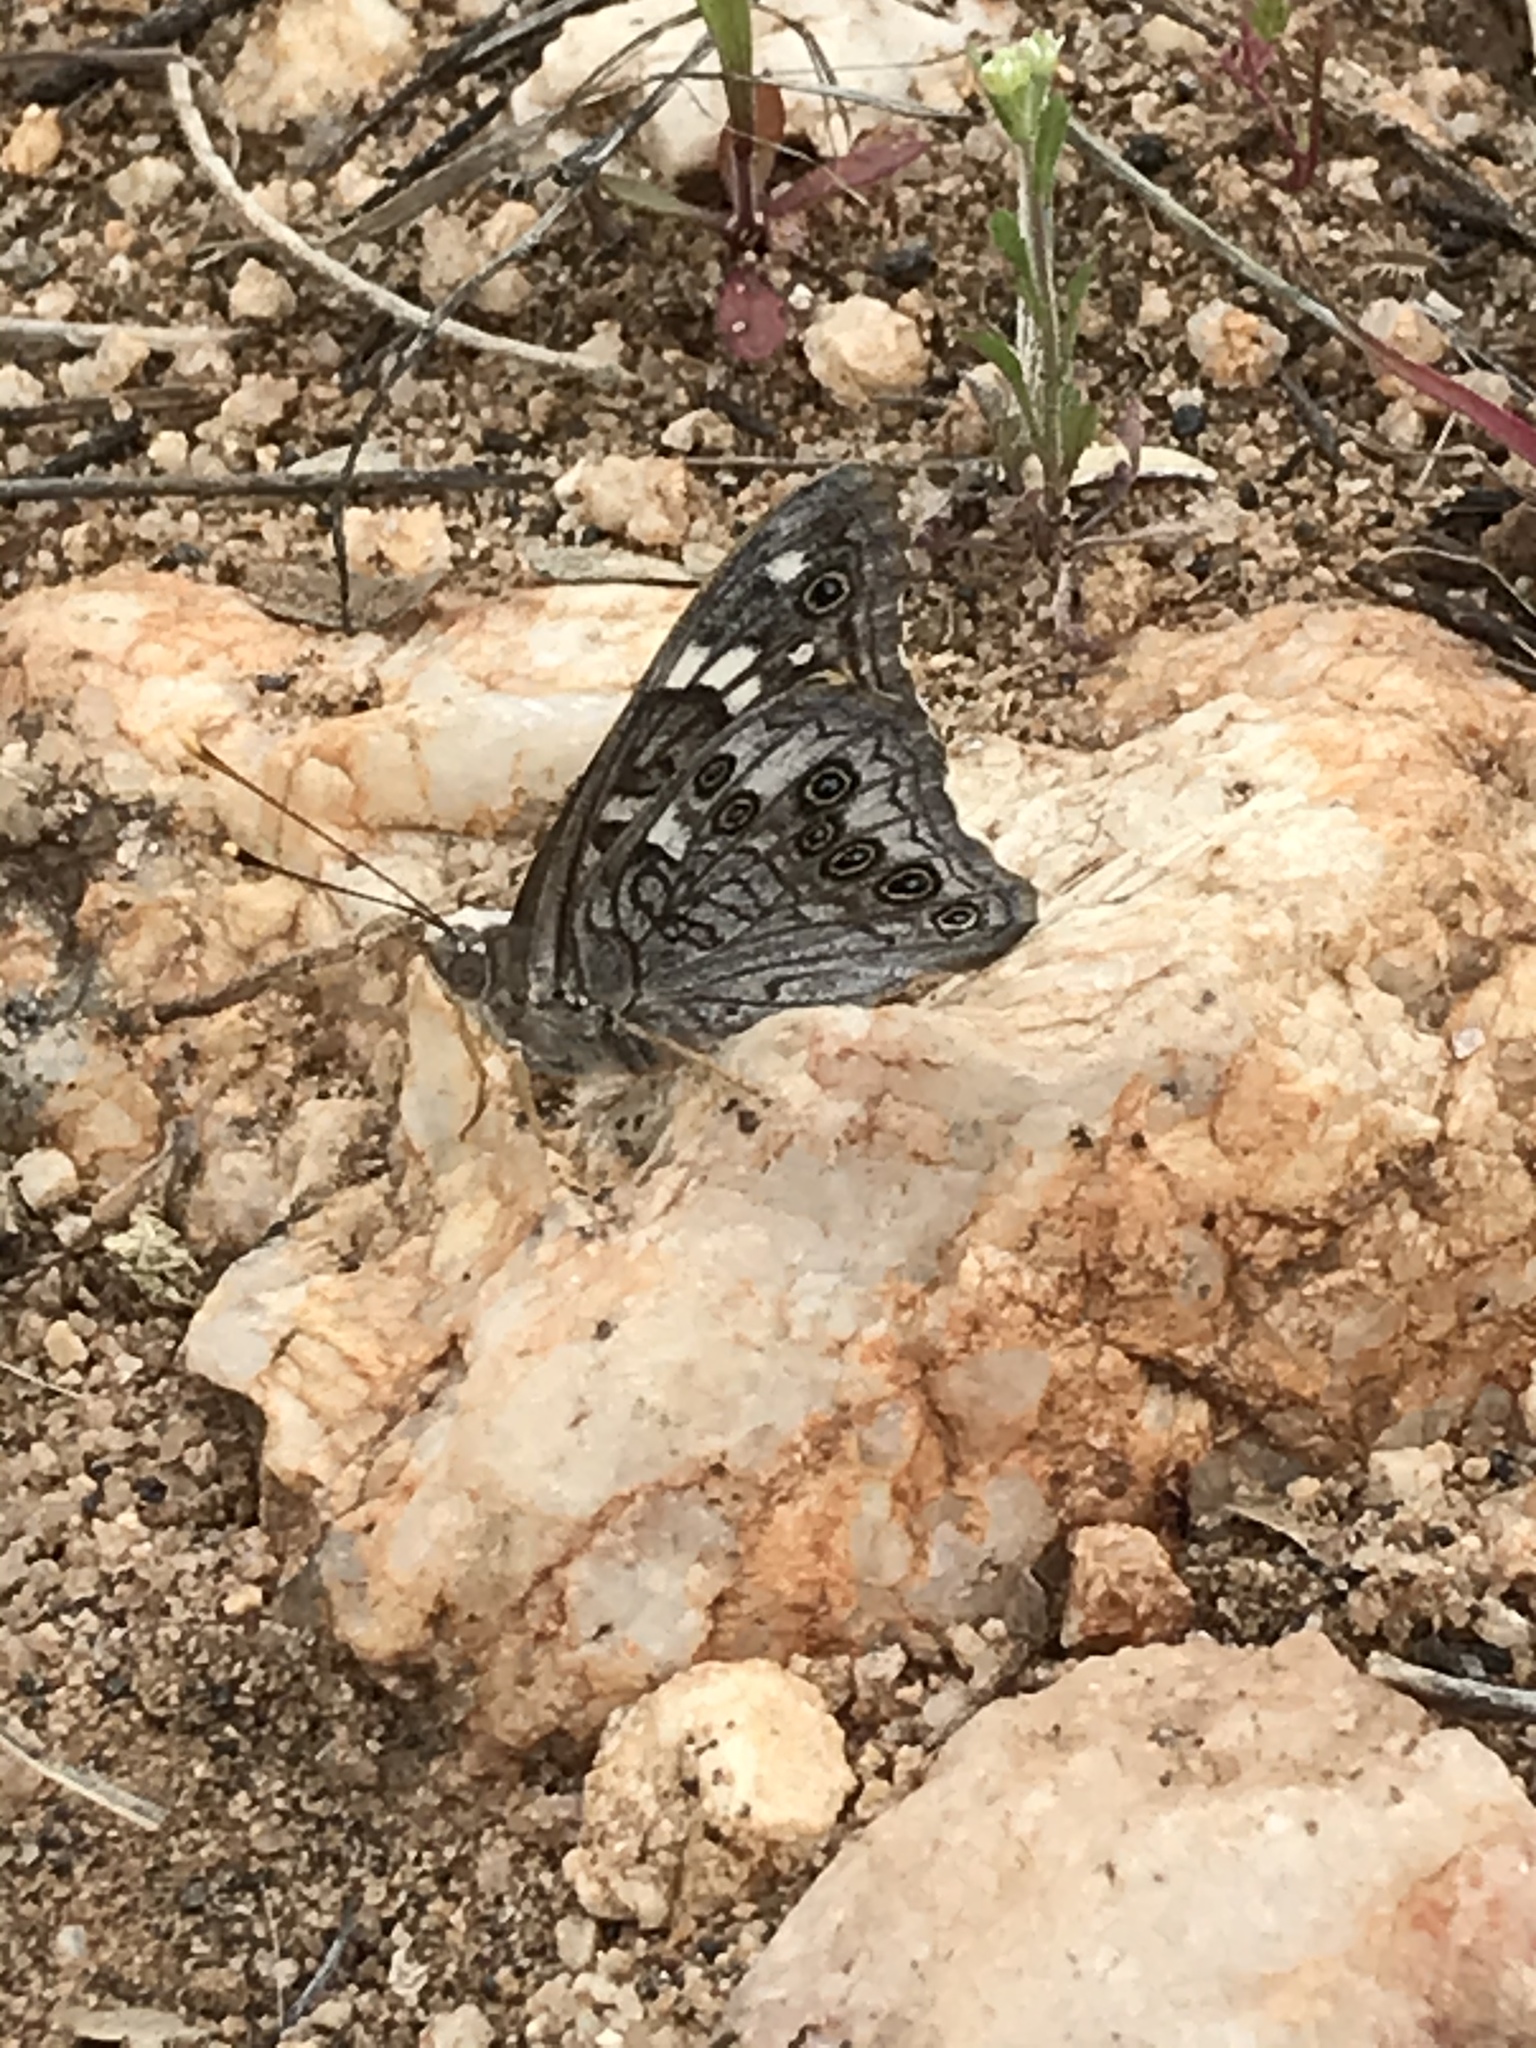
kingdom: Animalia
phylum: Arthropoda
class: Insecta
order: Lepidoptera
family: Nymphalidae
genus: Asterocampa
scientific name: Asterocampa leilia
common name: Empress leilia
